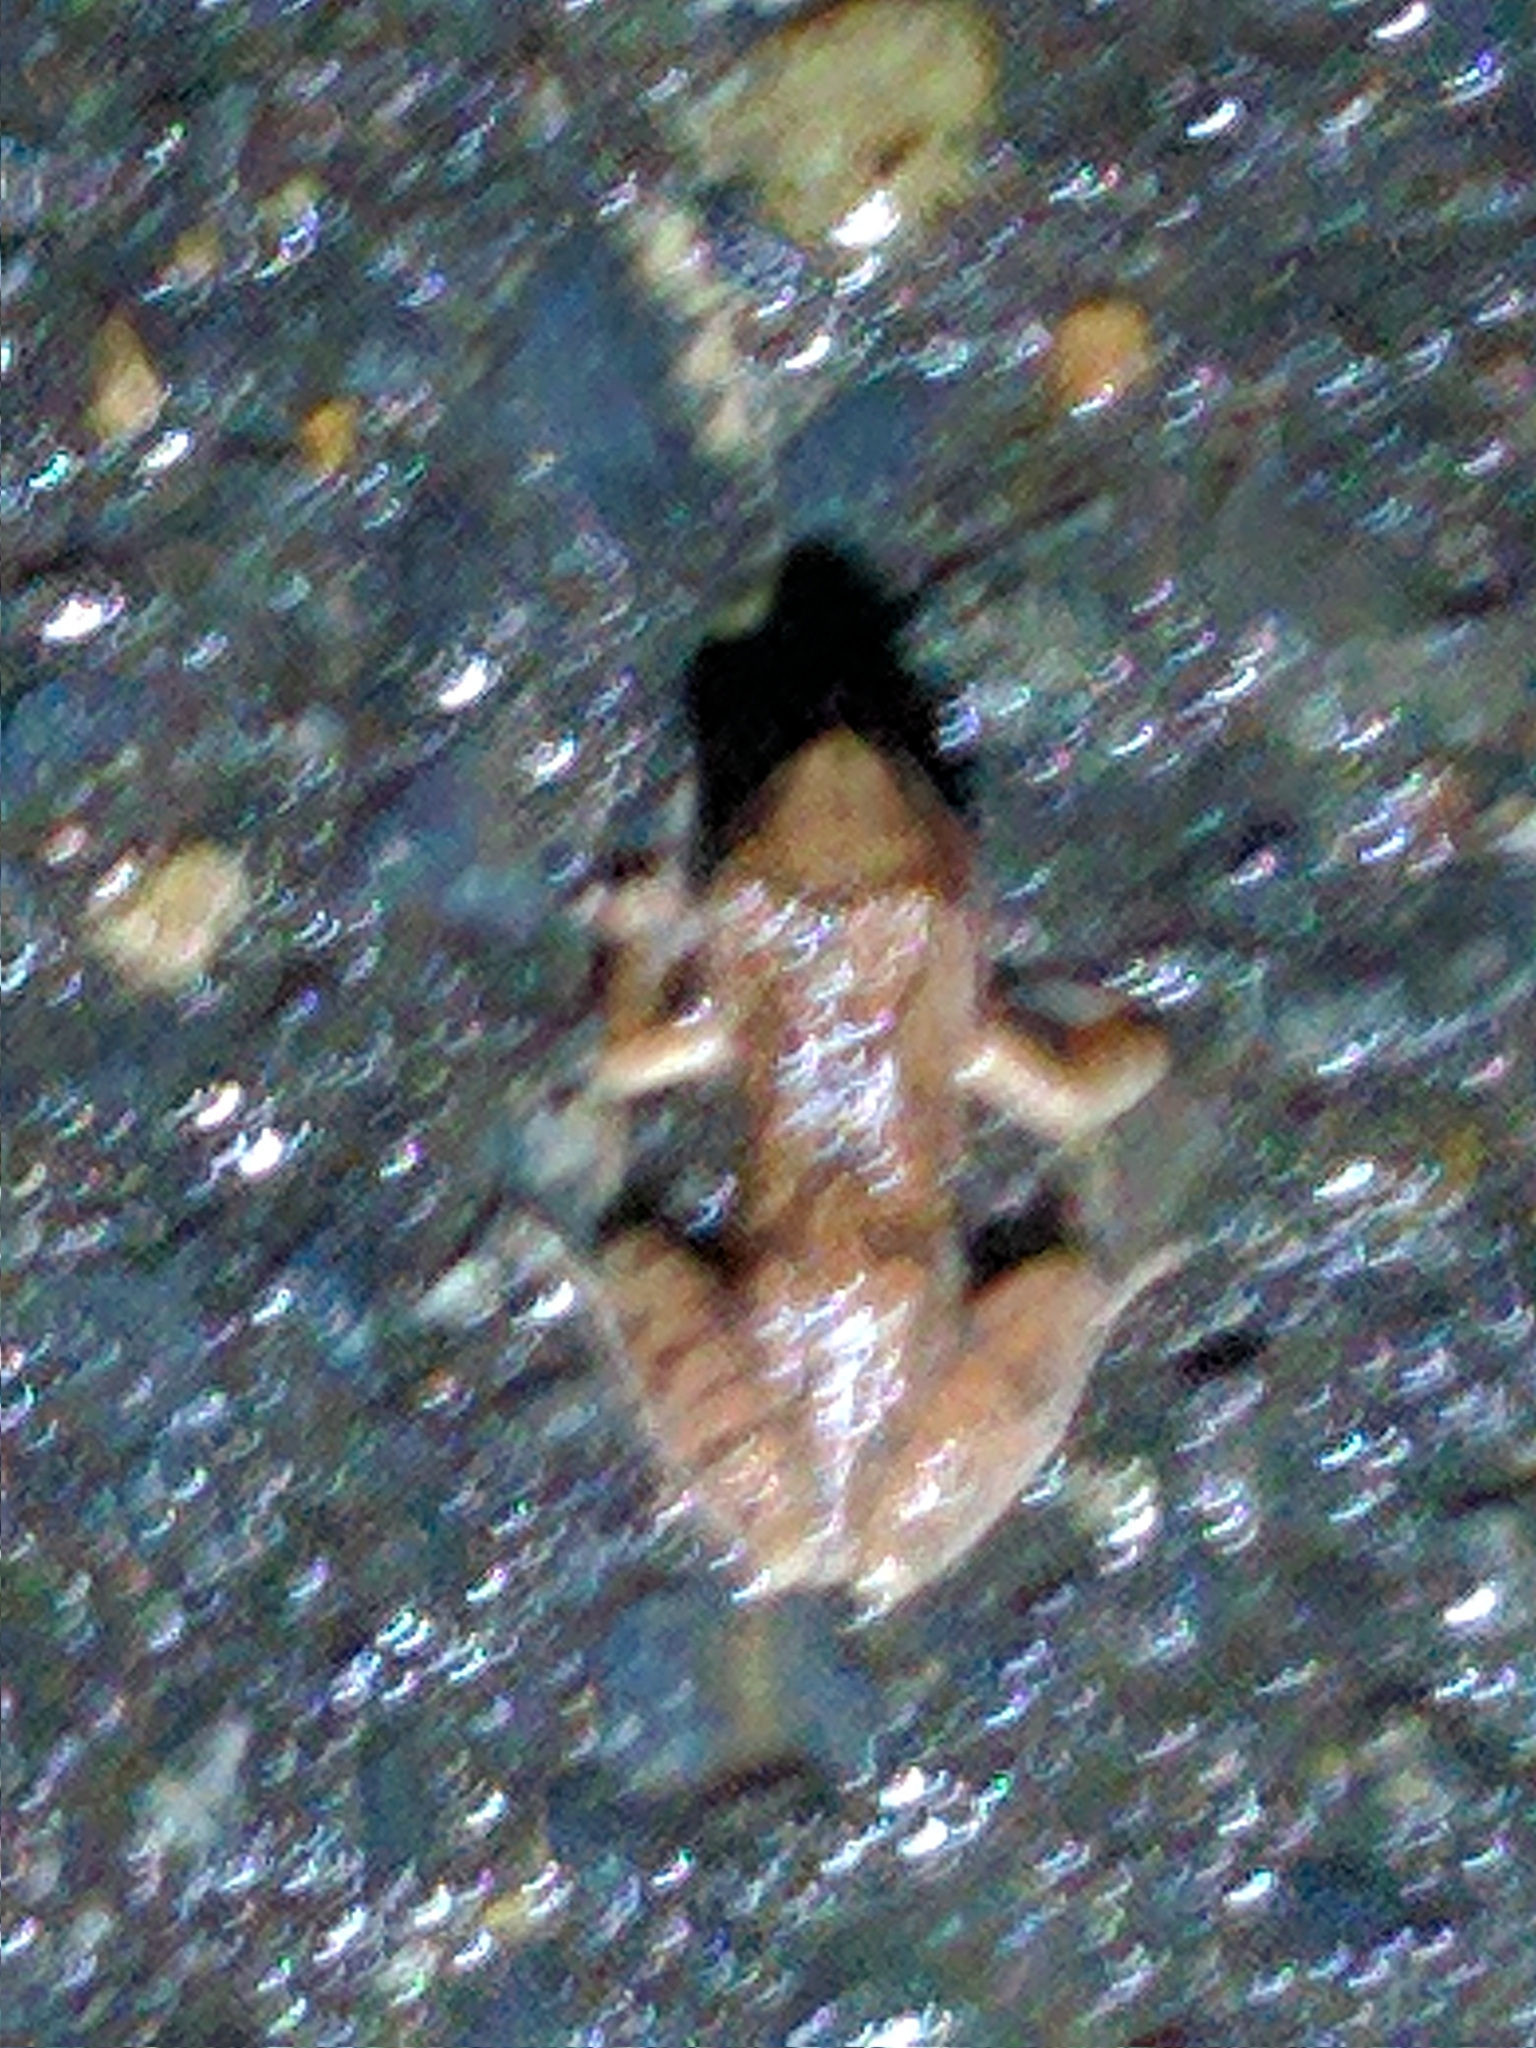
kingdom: Animalia
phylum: Chordata
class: Amphibia
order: Anura
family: Hylidae
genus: Pseudacris
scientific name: Pseudacris crucifer
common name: Spring peeper
